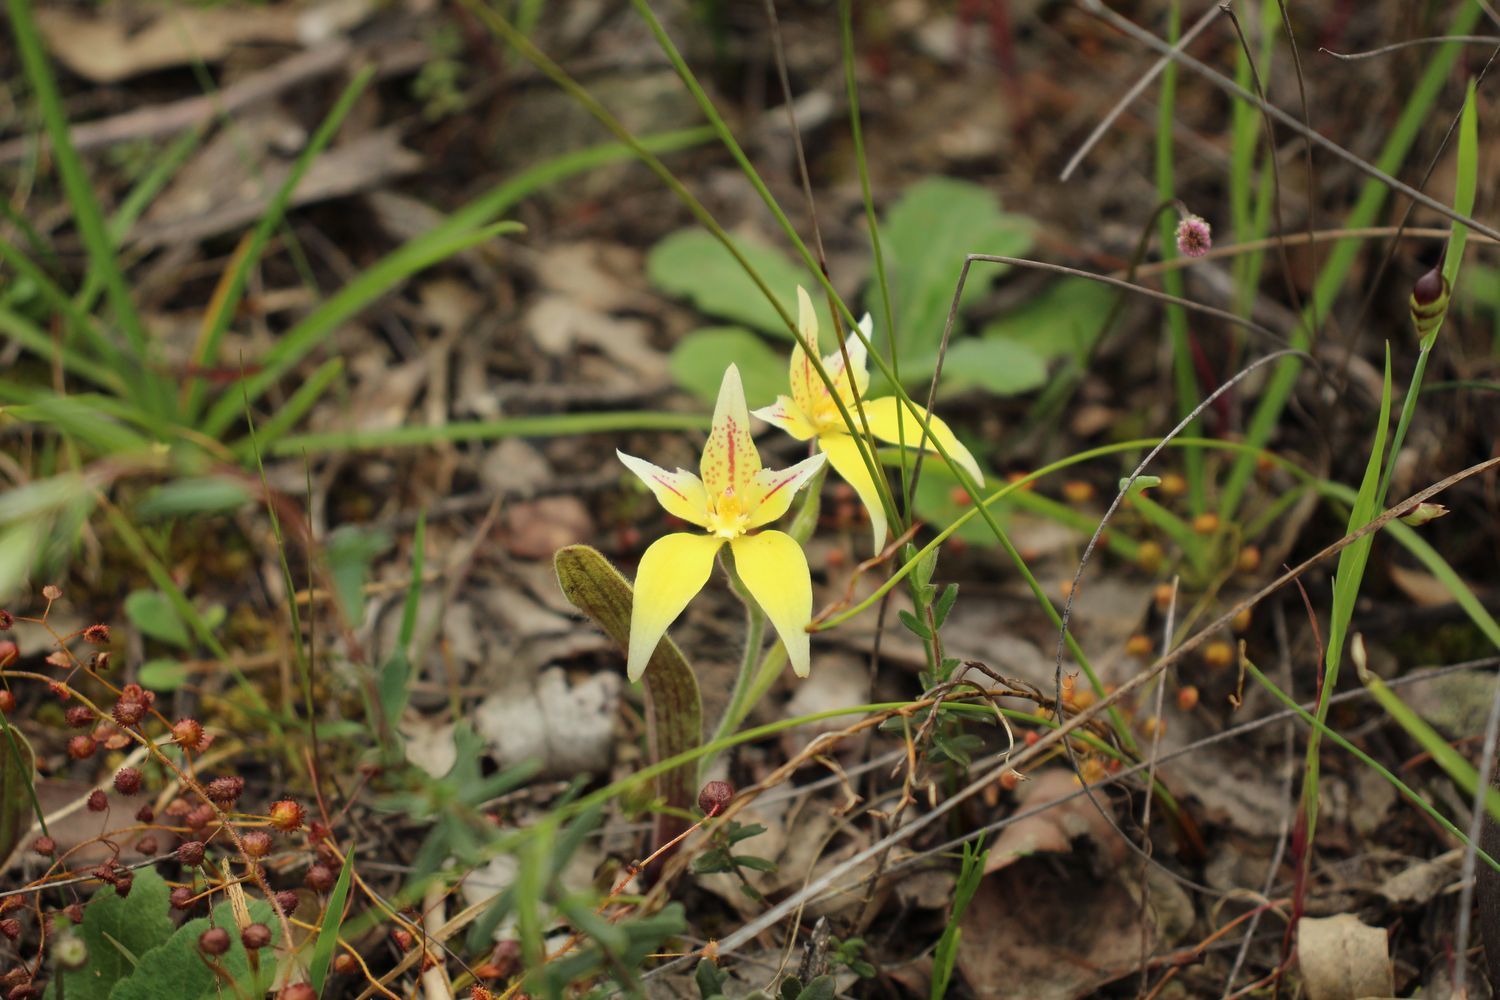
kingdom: Plantae
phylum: Tracheophyta
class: Liliopsida
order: Asparagales
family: Orchidaceae
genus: Caladenia
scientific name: Caladenia flava
